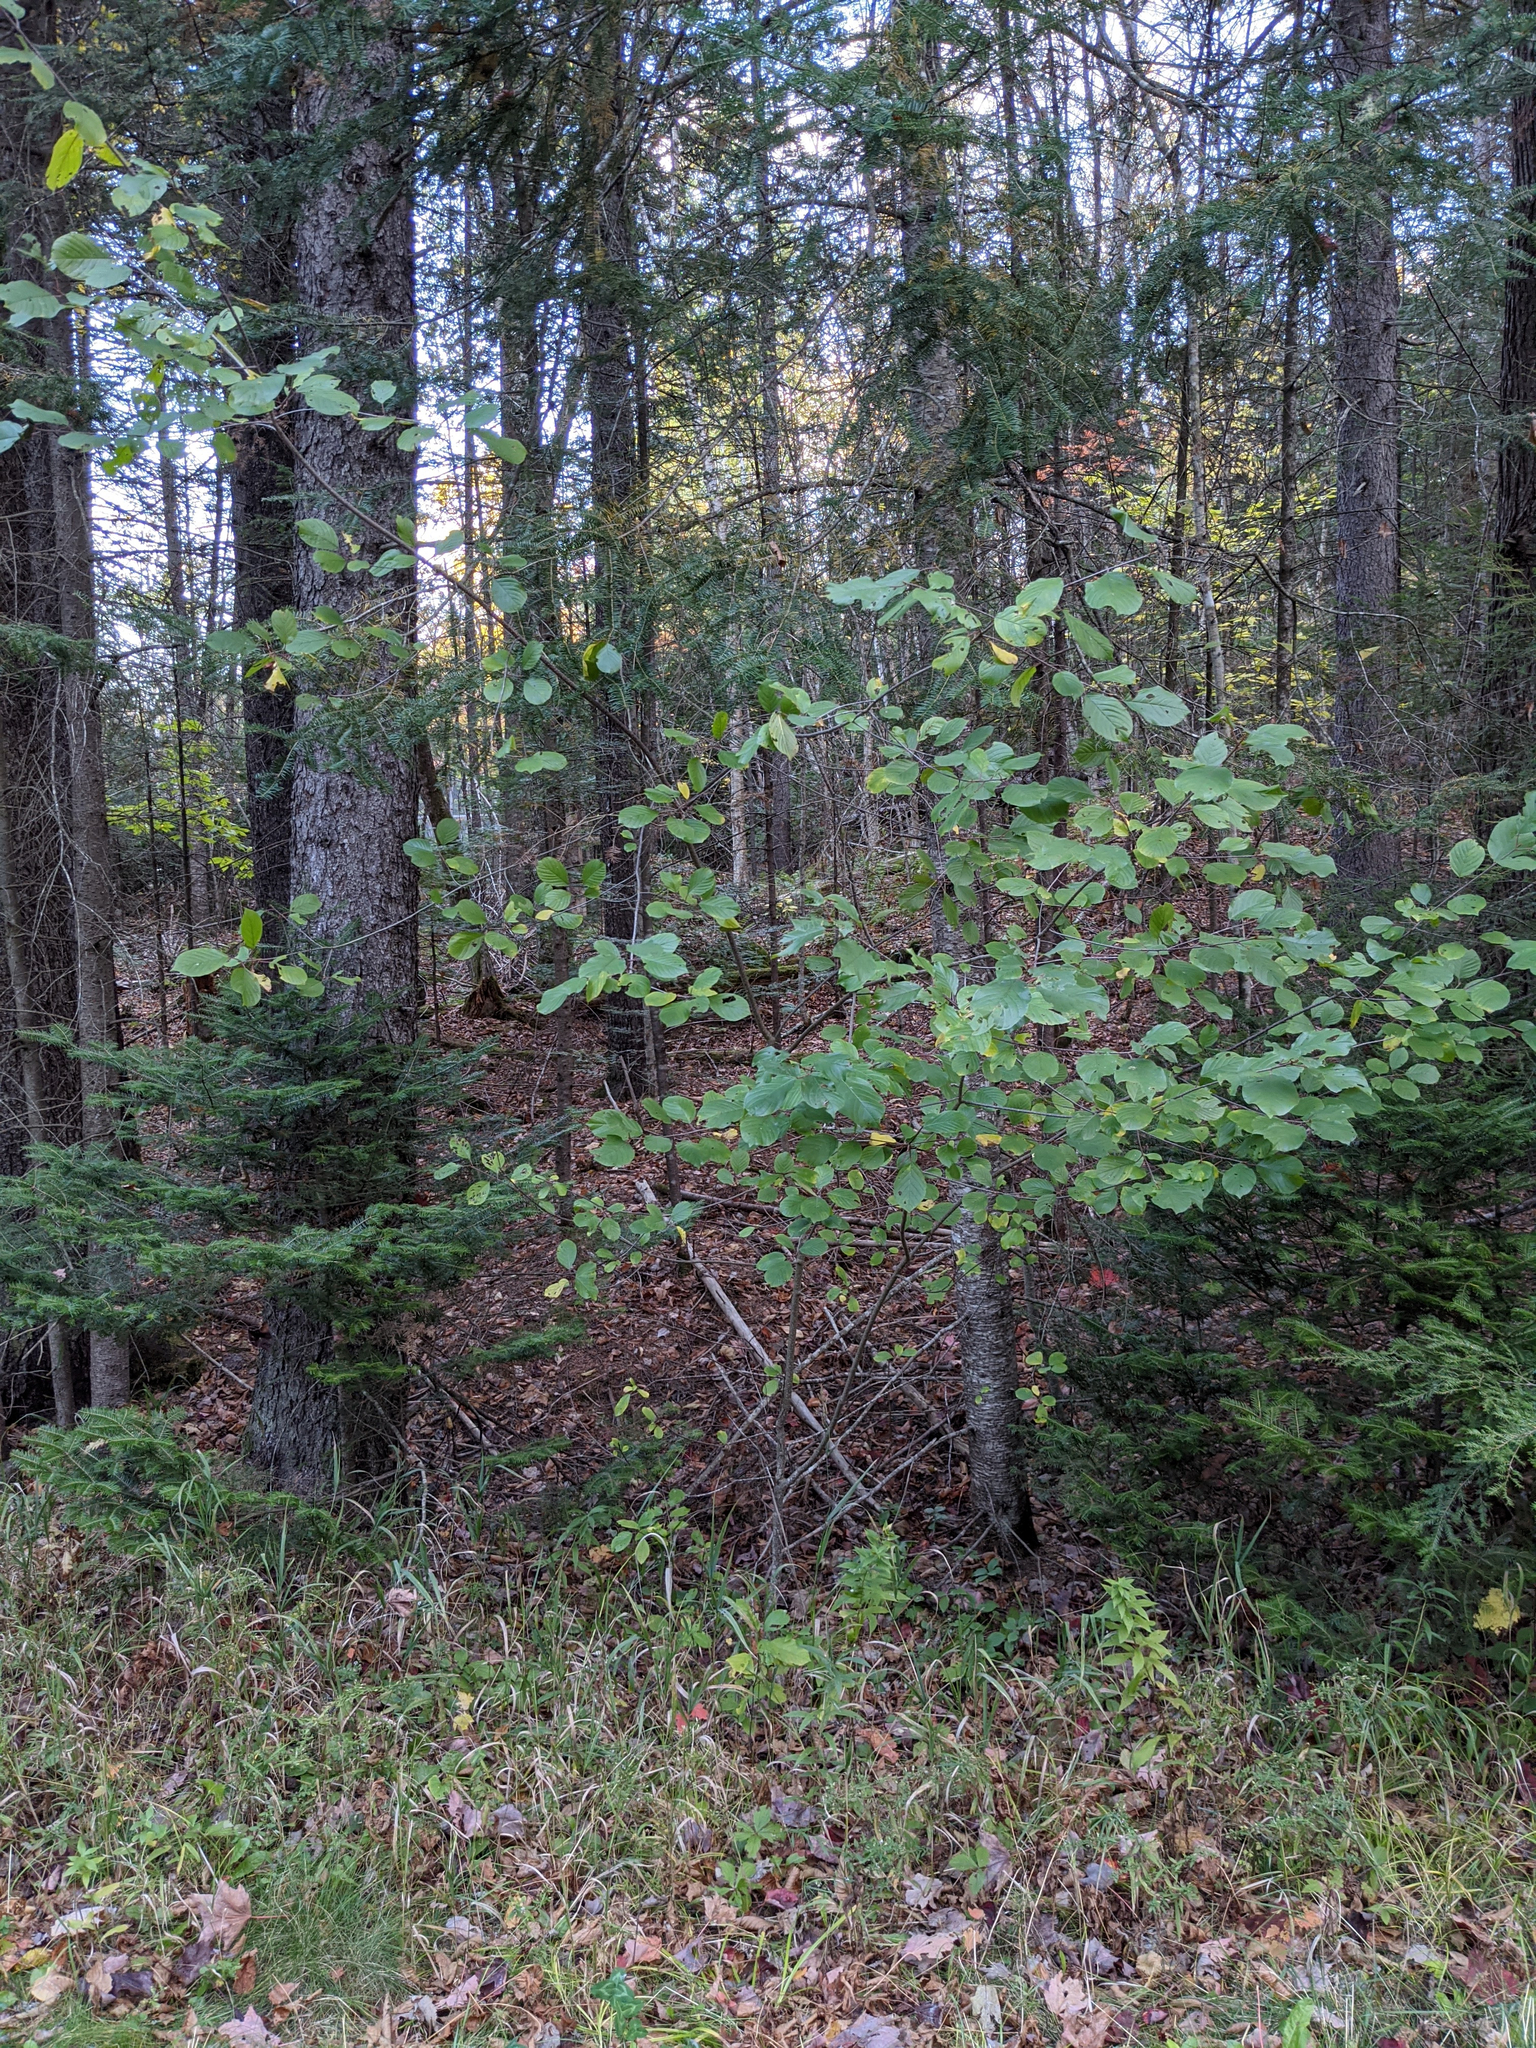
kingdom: Plantae
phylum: Tracheophyta
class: Magnoliopsida
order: Rosales
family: Rhamnaceae
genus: Frangula
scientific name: Frangula alnus
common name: Alder buckthorn
